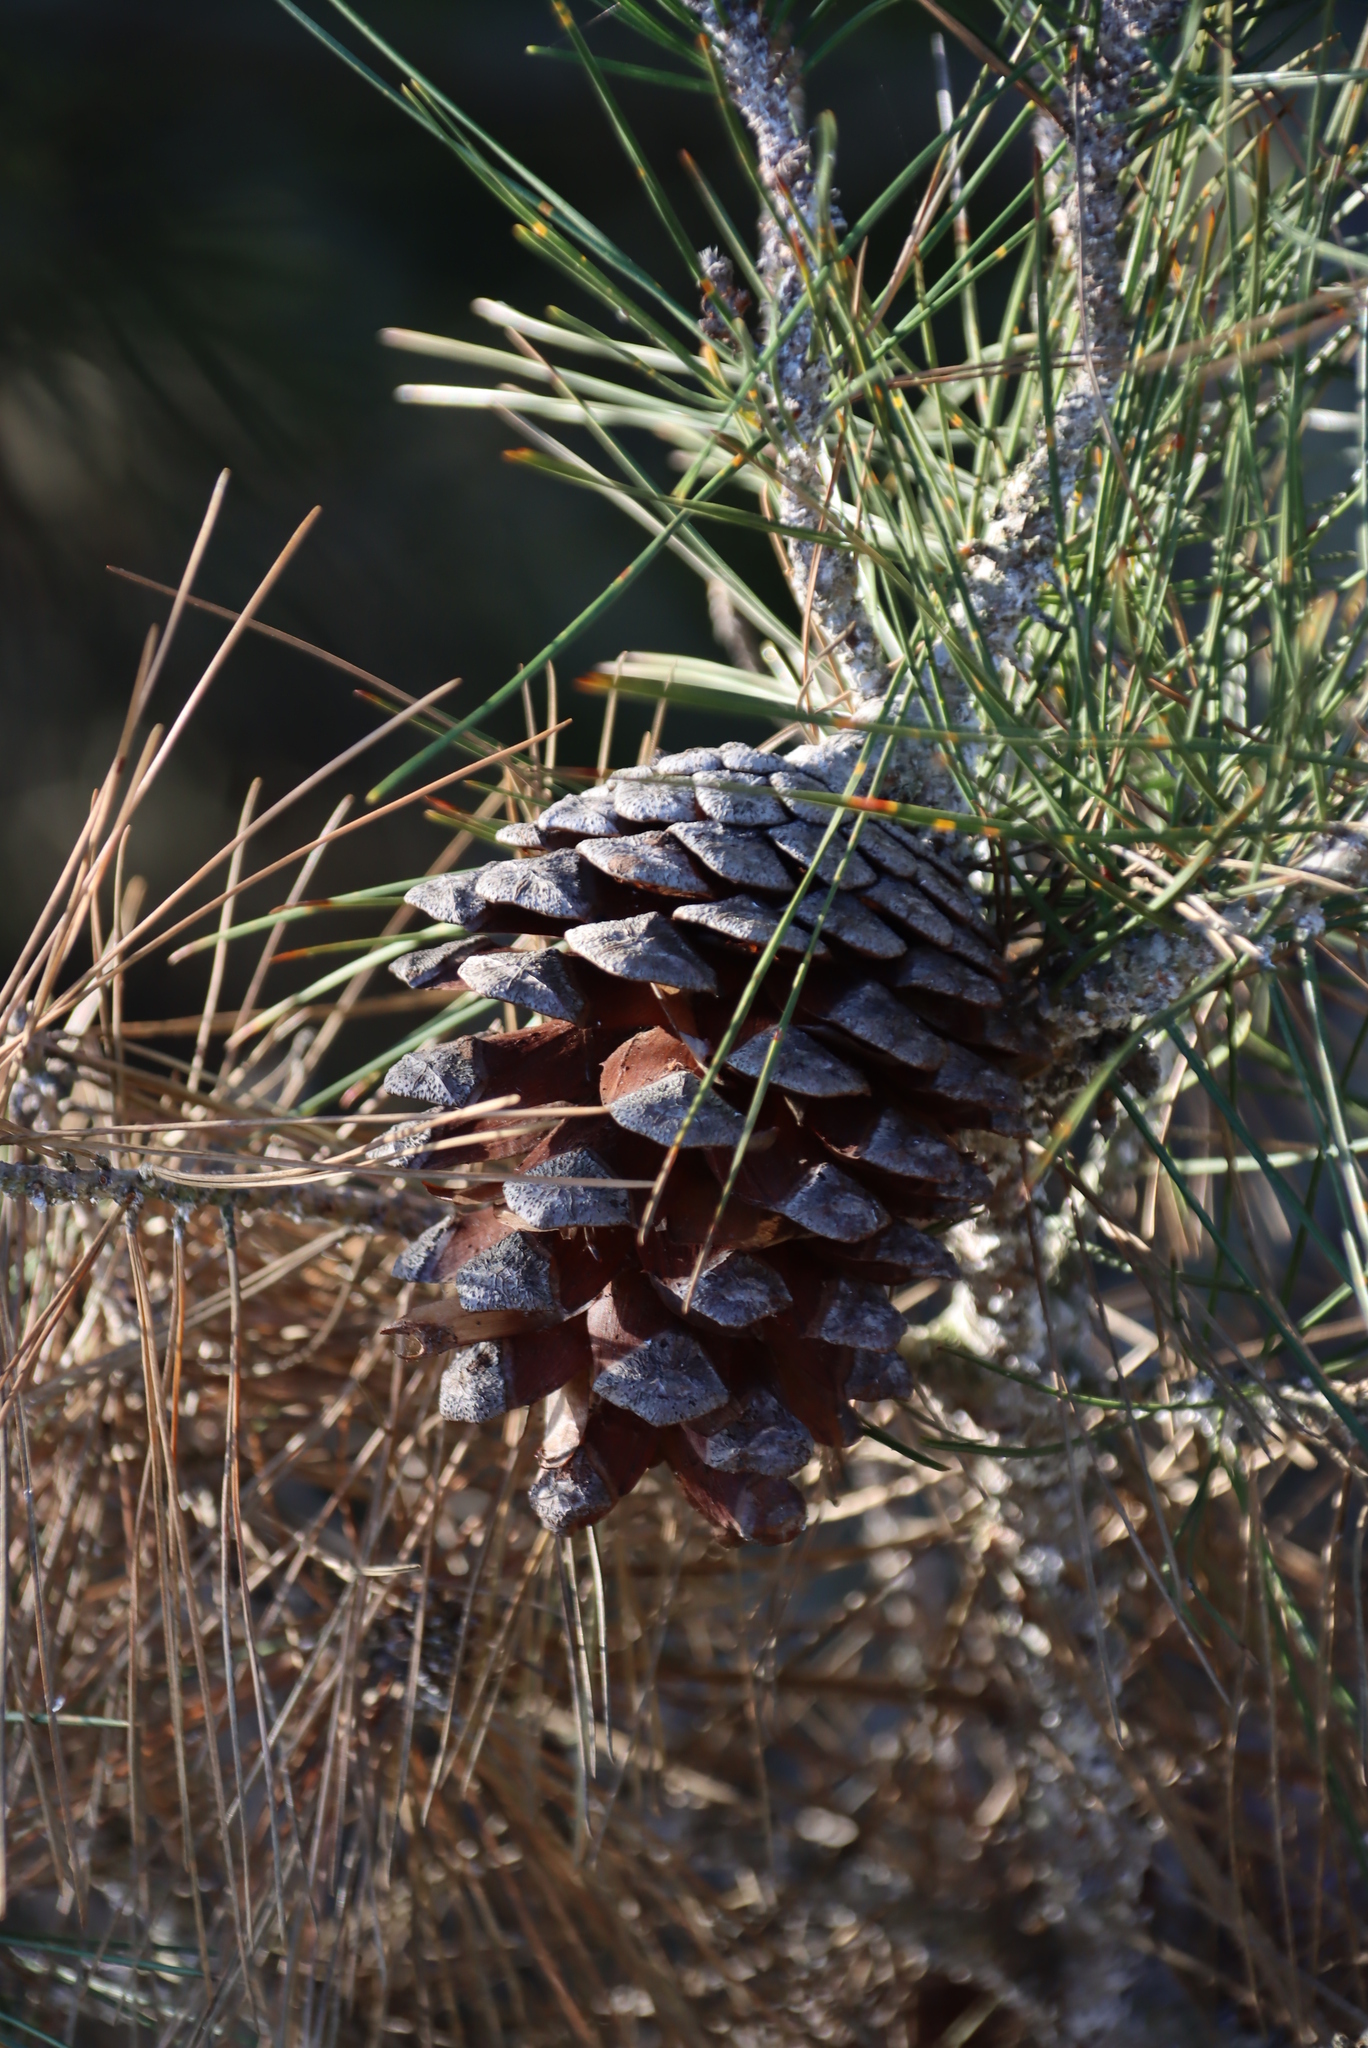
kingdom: Plantae
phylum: Tracheophyta
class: Pinopsida
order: Pinales
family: Pinaceae
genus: Pinus
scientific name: Pinus pinaster
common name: Maritime pine
